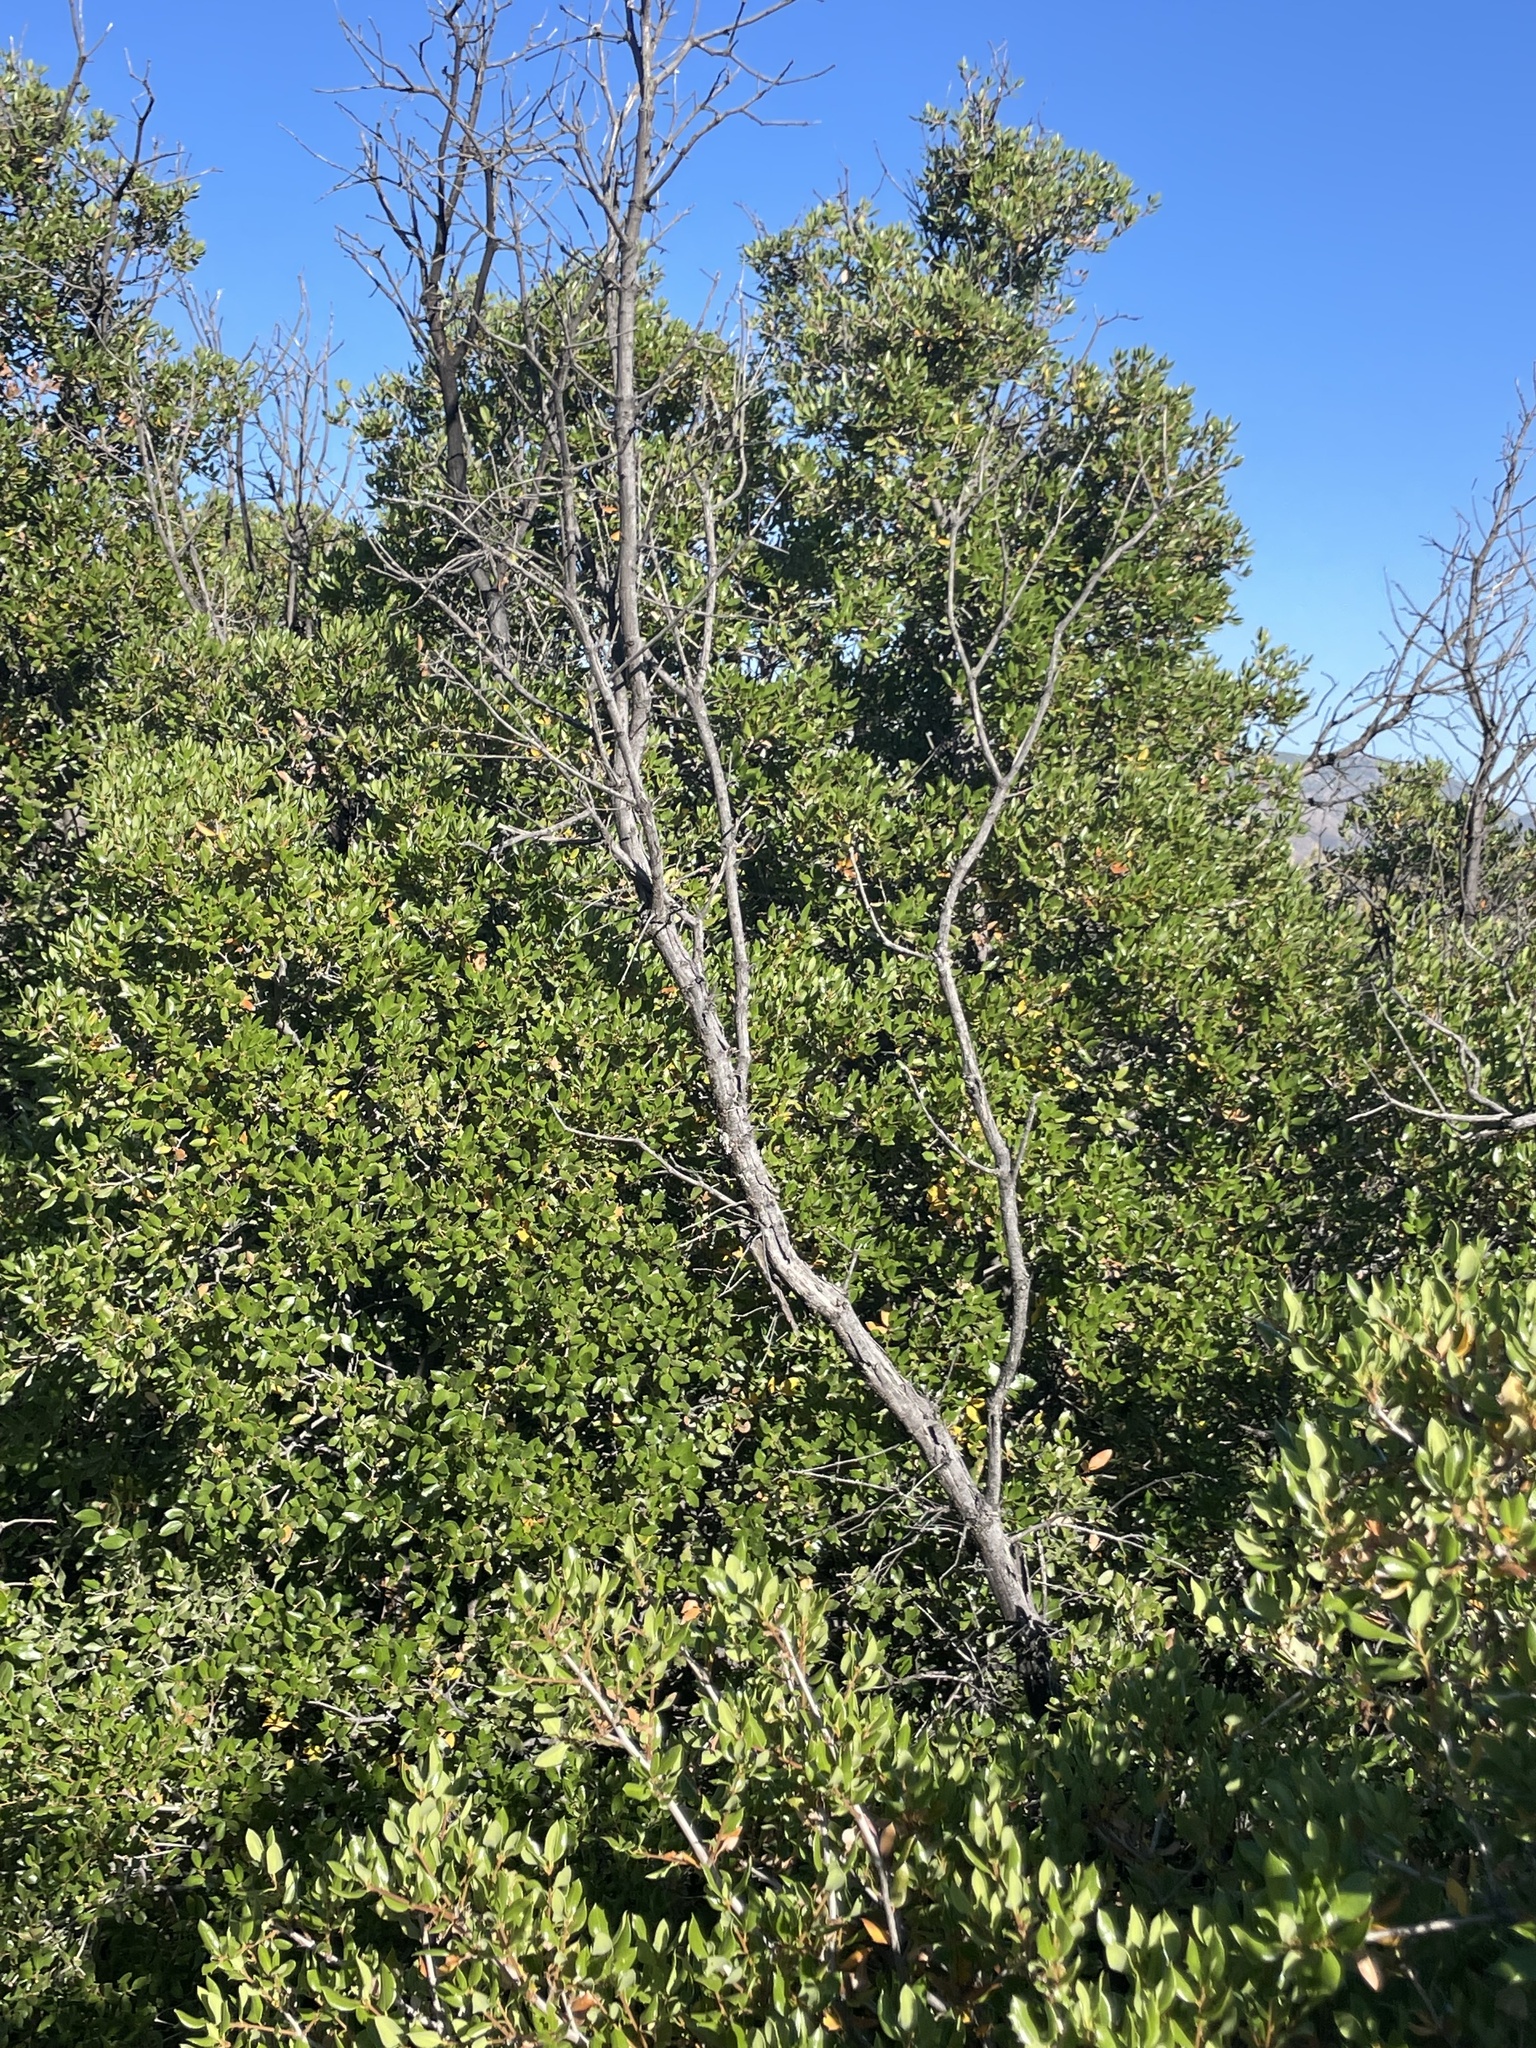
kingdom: Plantae
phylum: Tracheophyta
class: Magnoliopsida
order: Fagales
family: Fagaceae
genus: Quercus
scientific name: Quercus cedrosensis
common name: Cedros island oak
